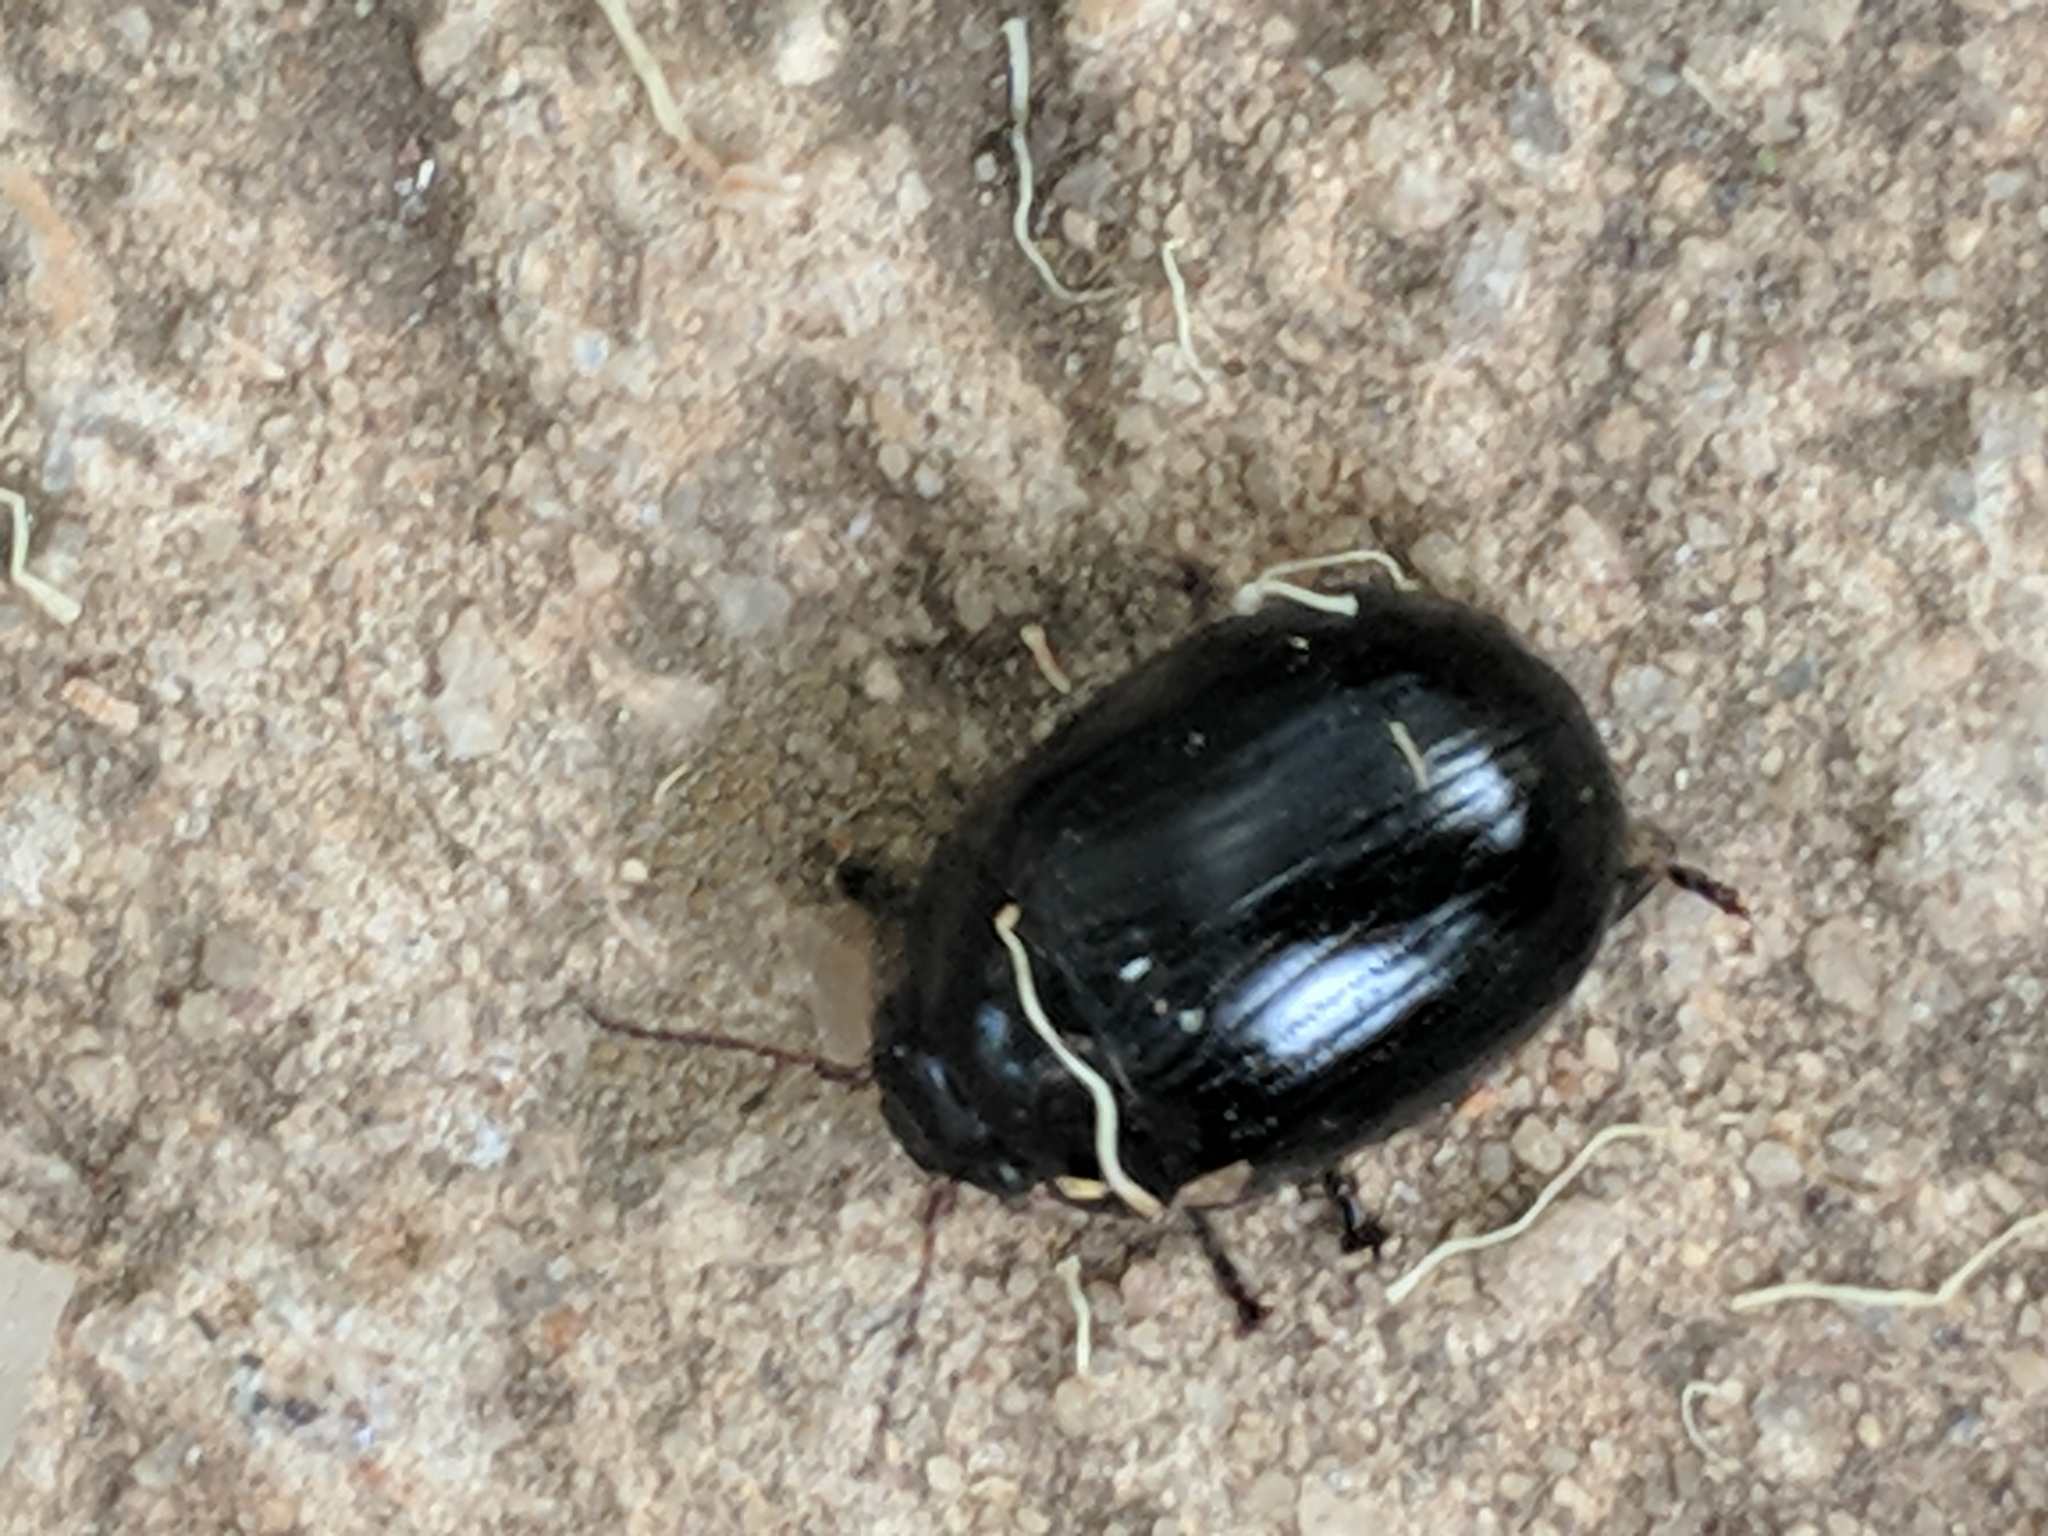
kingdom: Animalia
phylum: Arthropoda
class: Insecta
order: Coleoptera
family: Chrysomelidae
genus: Paropsisterna
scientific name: Paropsisterna
